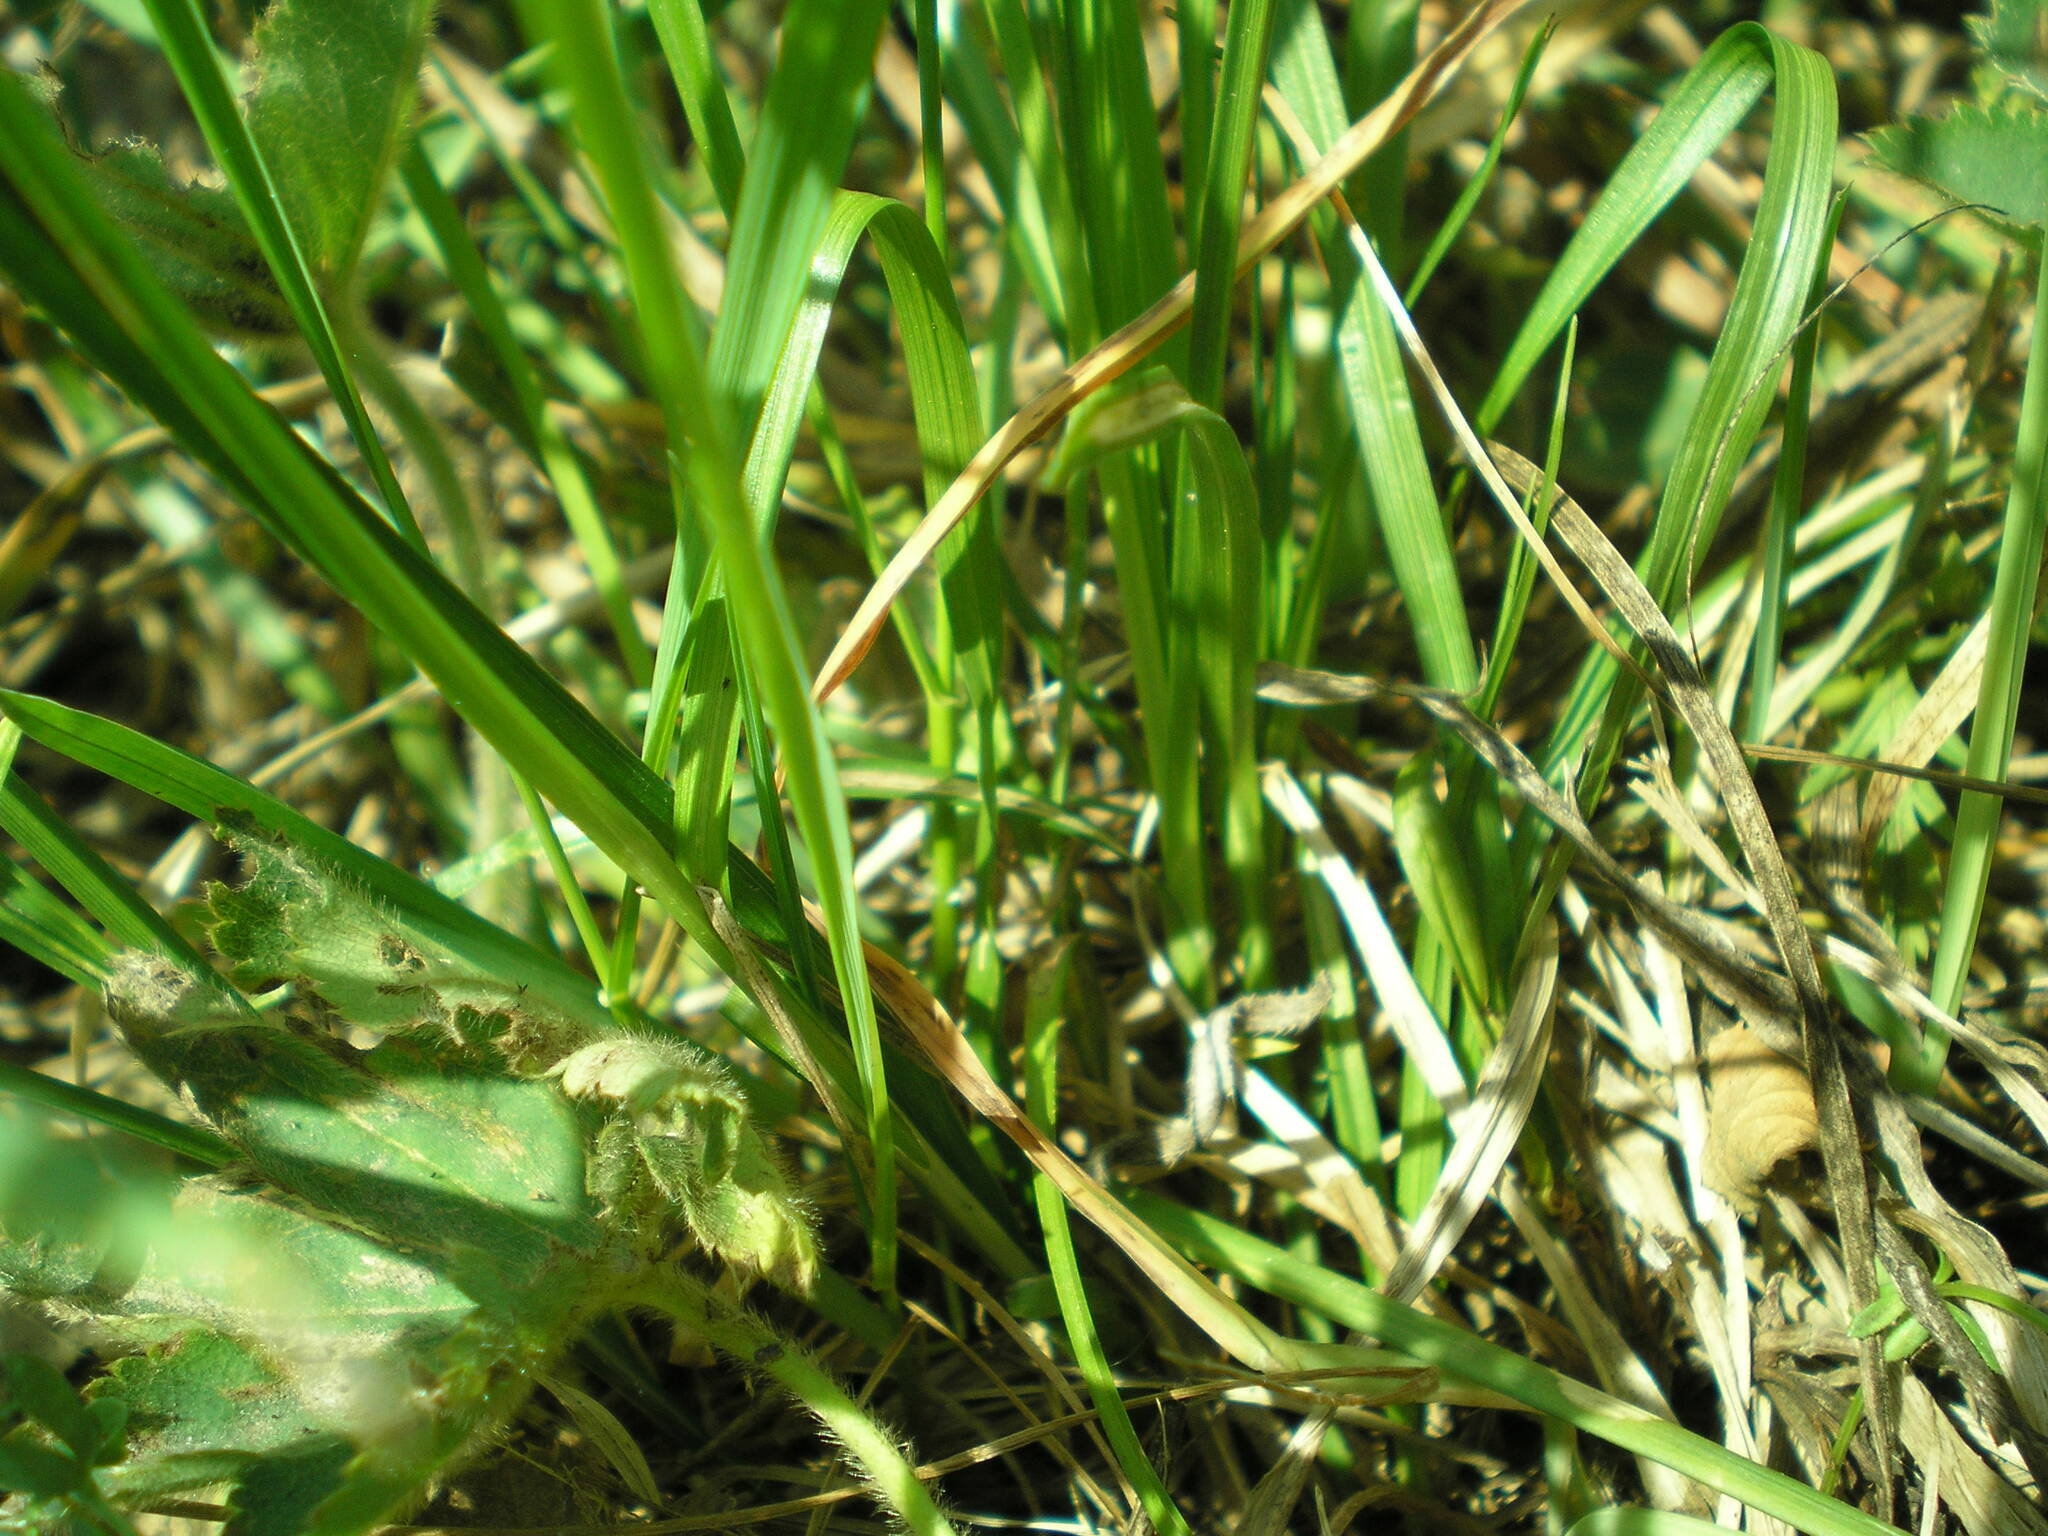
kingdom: Plantae
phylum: Tracheophyta
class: Liliopsida
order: Poales
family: Cyperaceae
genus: Carex
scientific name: Carex spicata
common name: Spiked sedge
